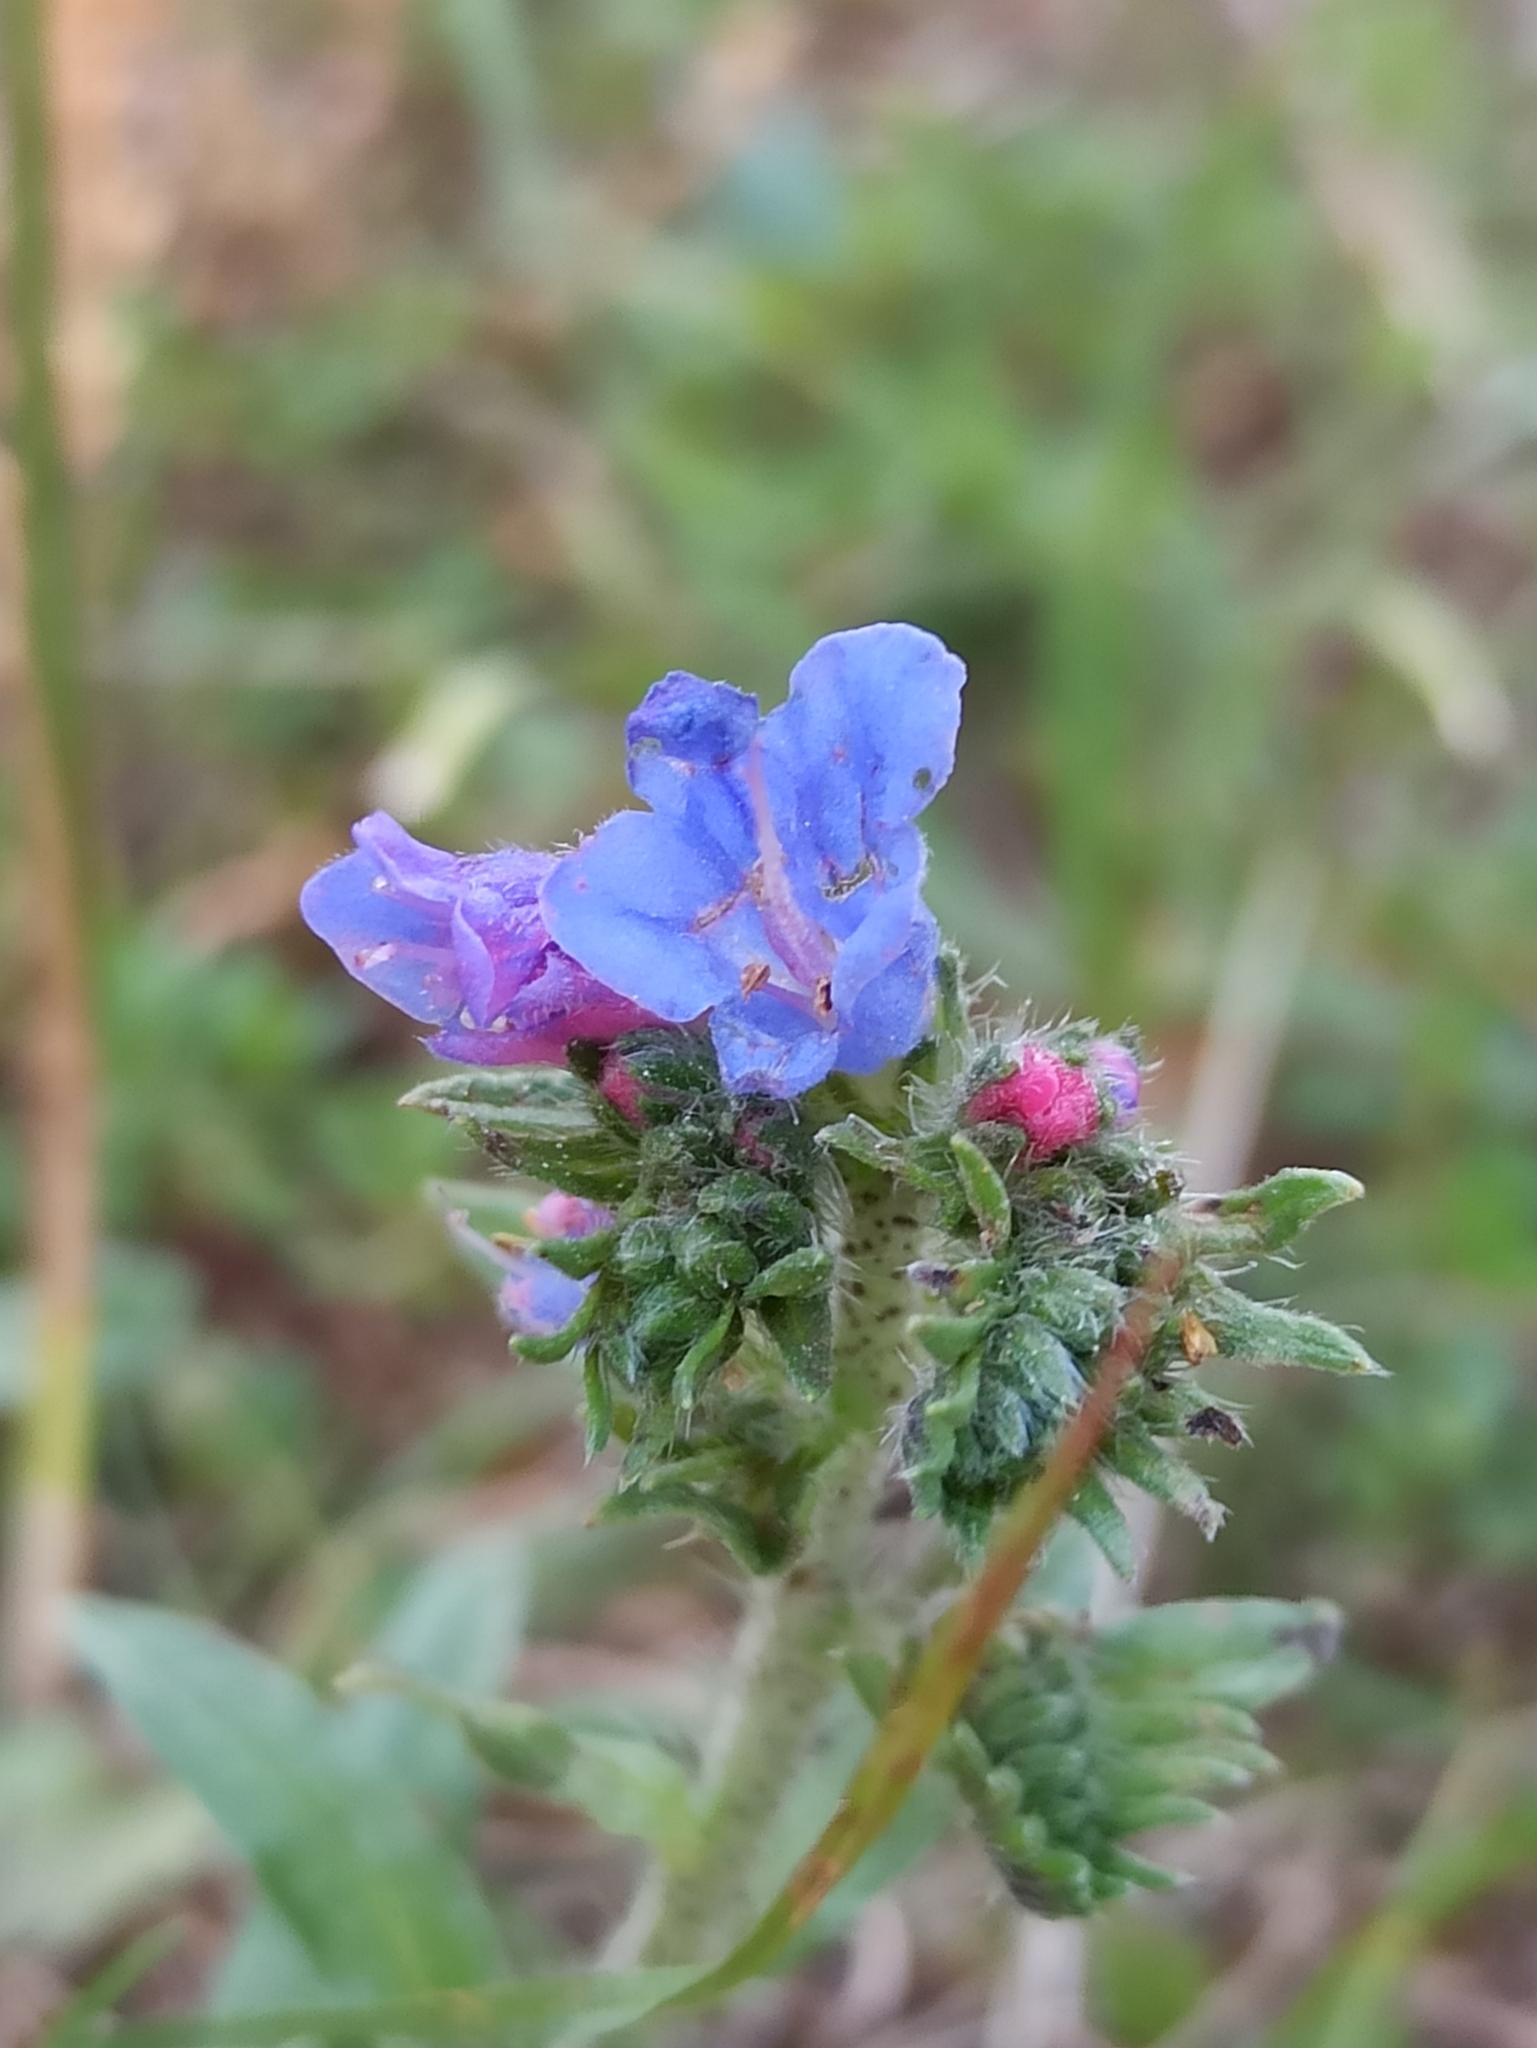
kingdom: Plantae
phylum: Tracheophyta
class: Magnoliopsida
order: Boraginales
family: Boraginaceae
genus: Echium
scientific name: Echium vulgare
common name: Common viper's bugloss
